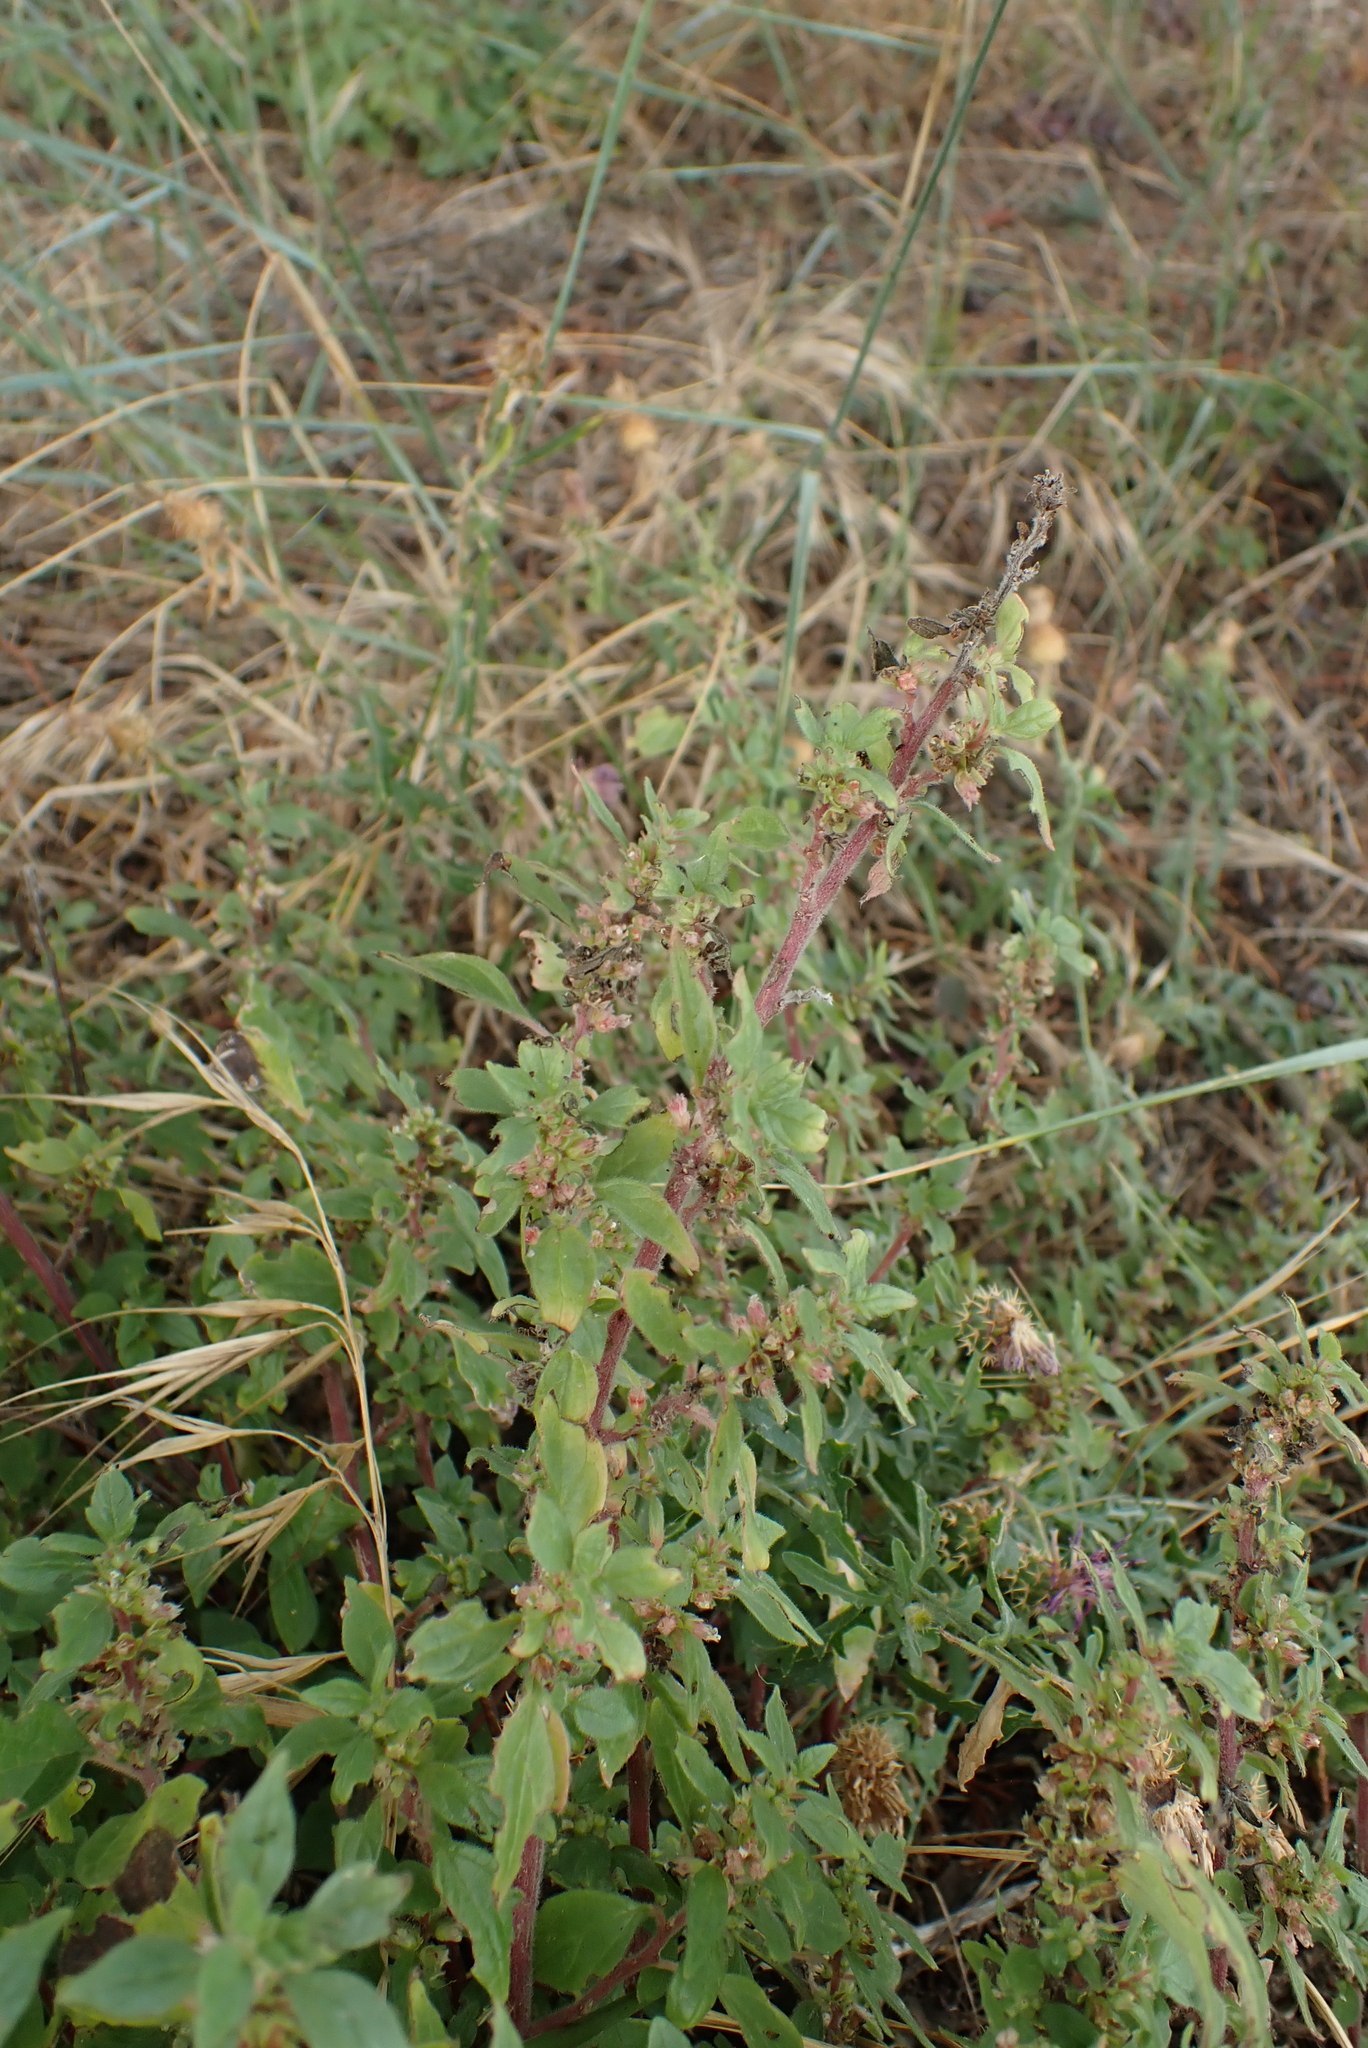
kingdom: Plantae
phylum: Tracheophyta
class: Magnoliopsida
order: Rosales
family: Urticaceae
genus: Parietaria
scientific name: Parietaria judaica
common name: Pellitory-of-the-wall
